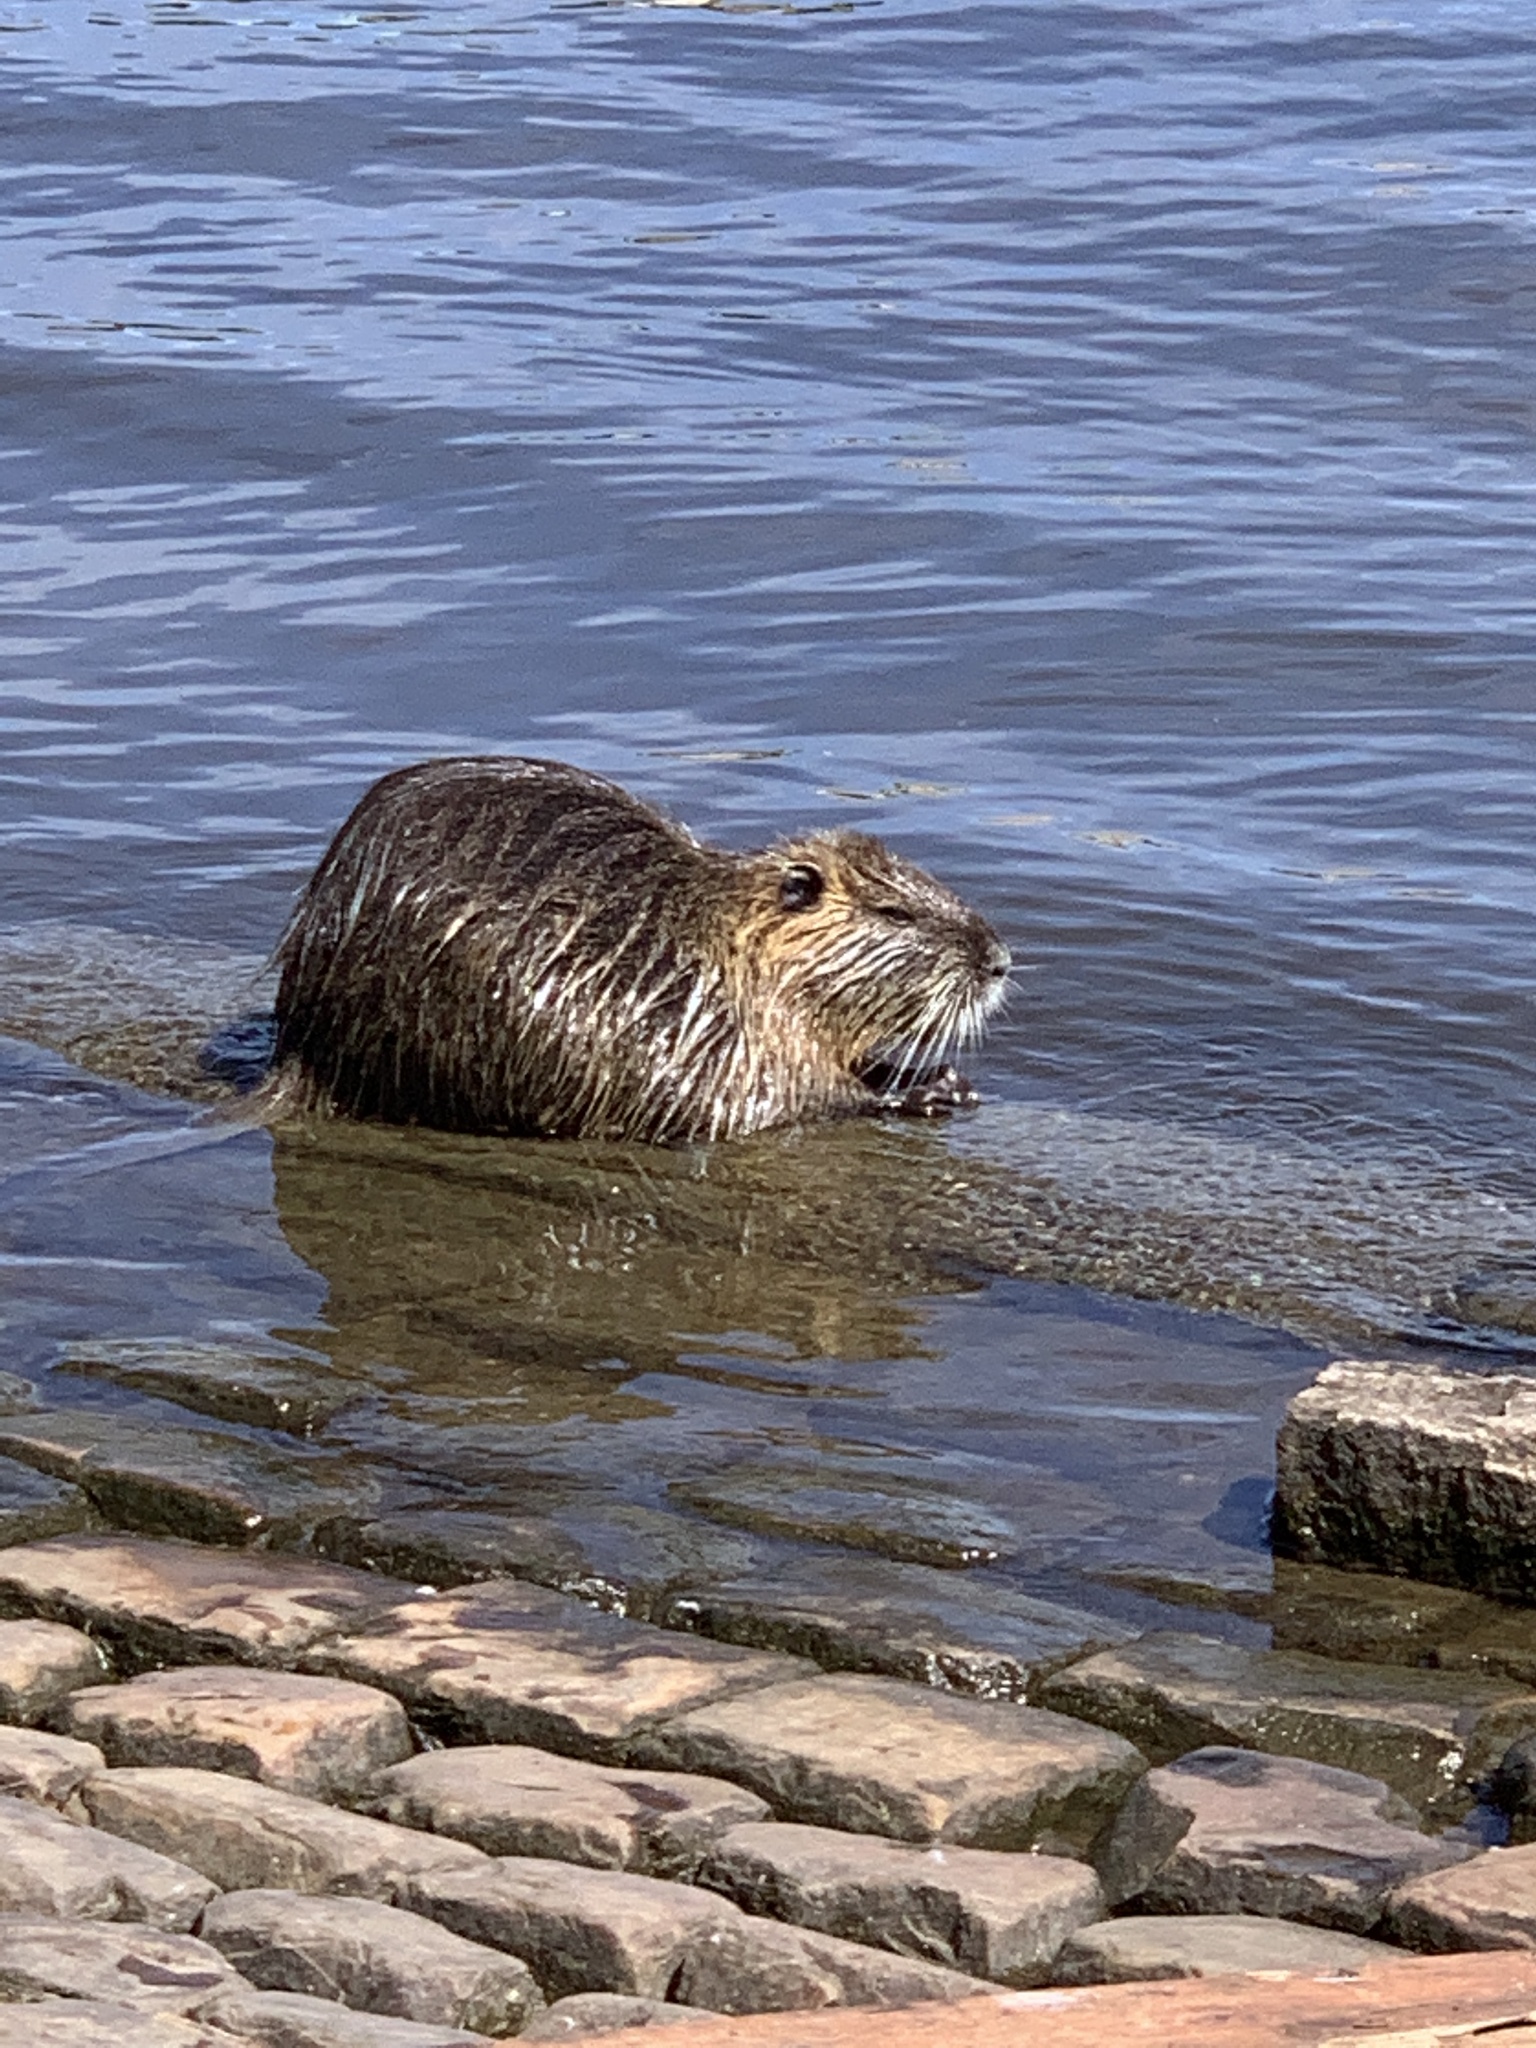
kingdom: Animalia
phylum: Chordata
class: Mammalia
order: Rodentia
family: Myocastoridae
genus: Myocastor
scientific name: Myocastor coypus
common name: Coypu
